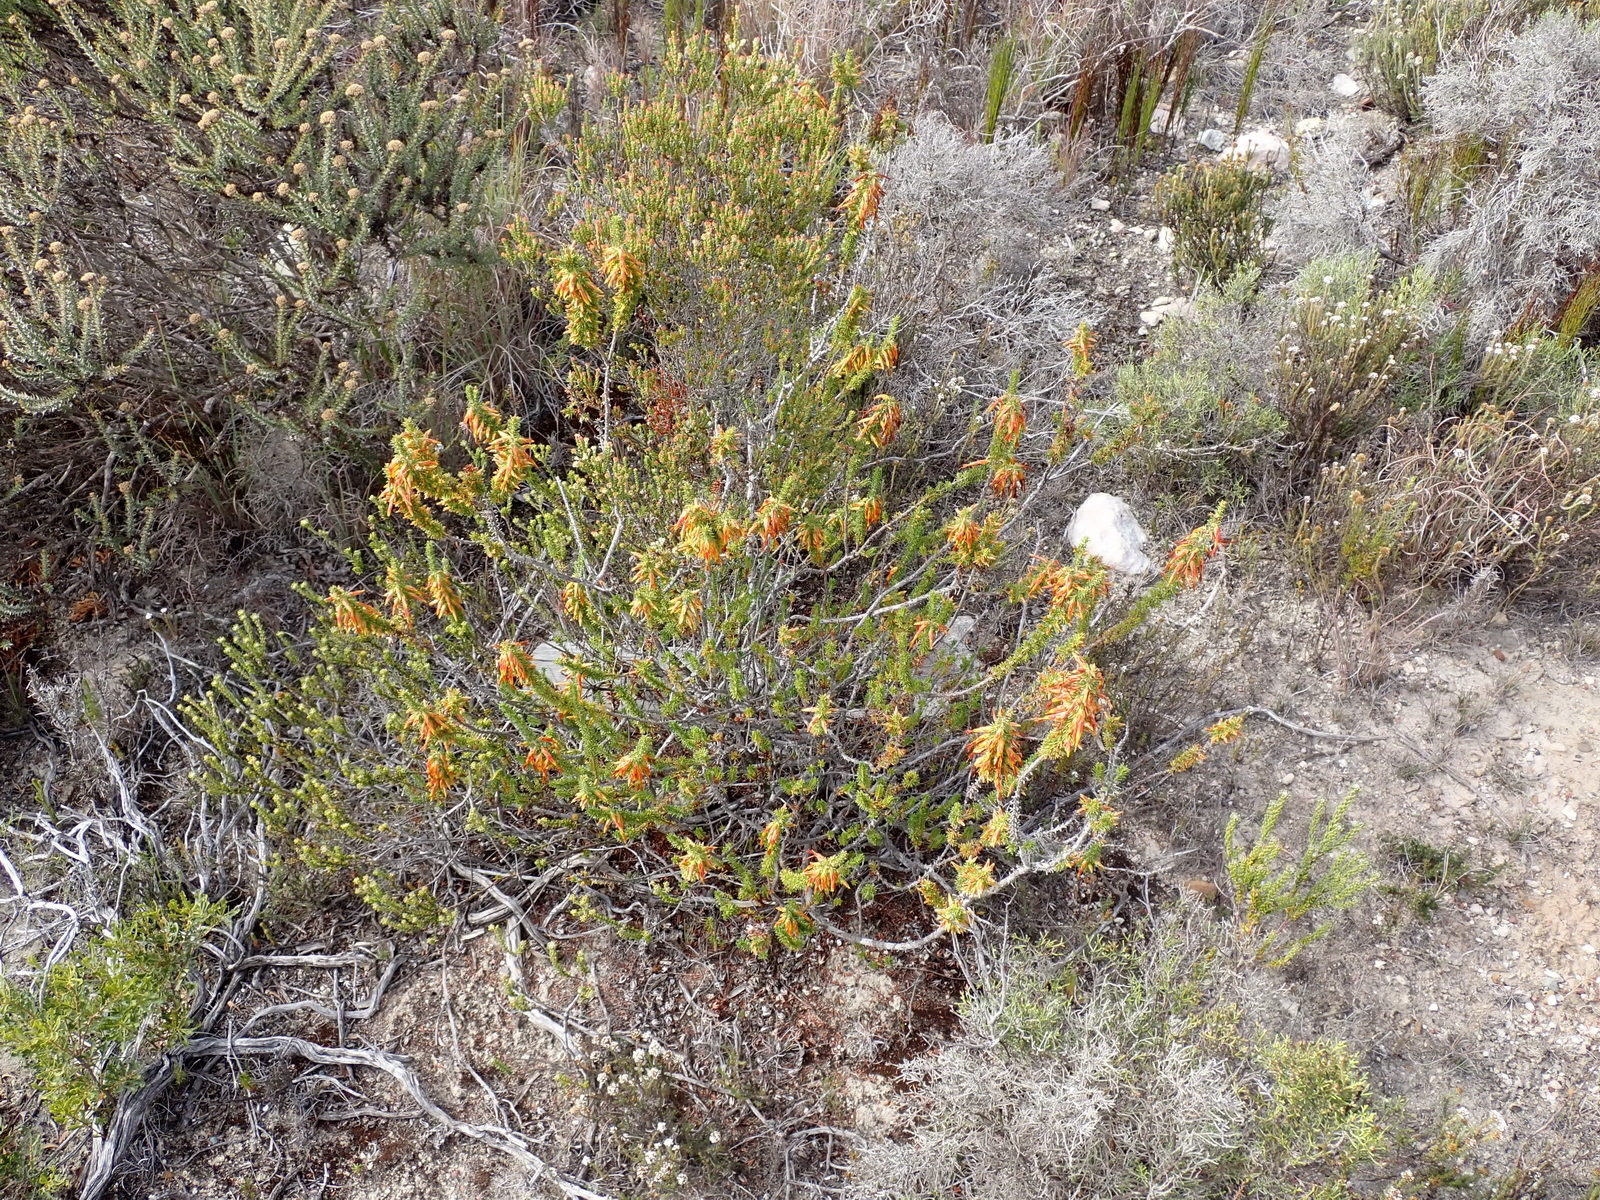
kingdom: Plantae
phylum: Tracheophyta
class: Magnoliopsida
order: Ericales
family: Ericaceae
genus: Erica
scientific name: Erica coccinea
